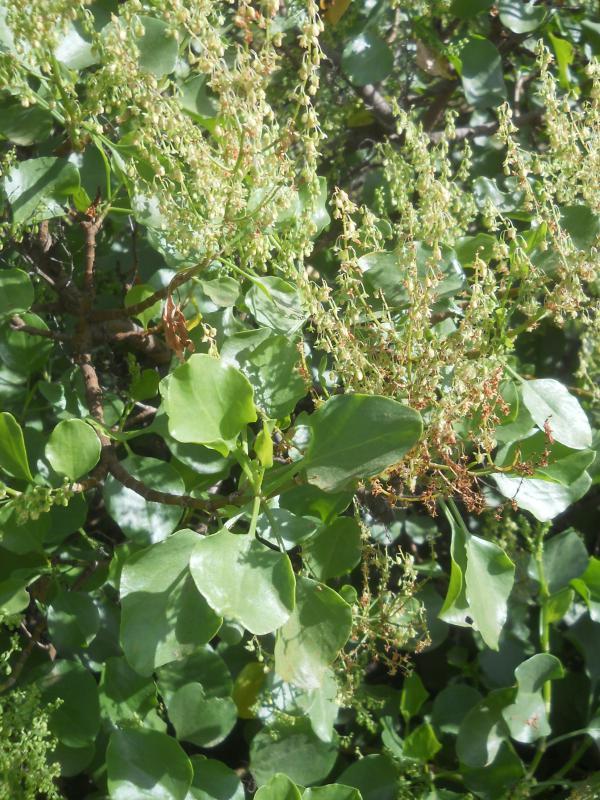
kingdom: Plantae
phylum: Tracheophyta
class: Magnoliopsida
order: Caryophyllales
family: Polygonaceae
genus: Rumex
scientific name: Rumex lunaria
